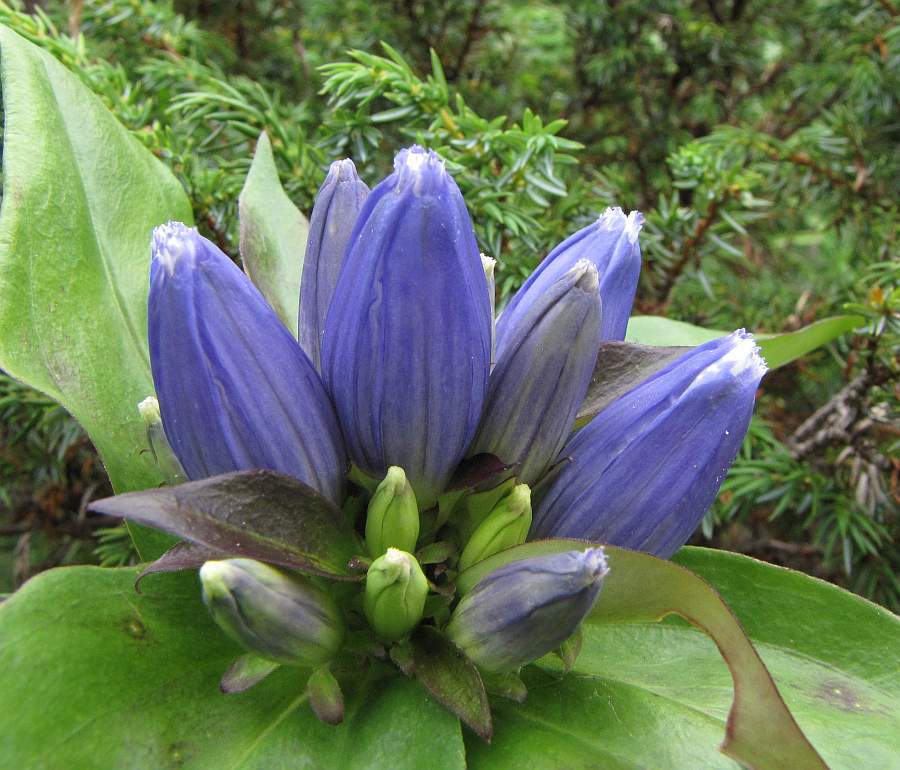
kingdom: Plantae
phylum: Tracheophyta
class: Magnoliopsida
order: Gentianales
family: Gentianaceae
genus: Gentiana
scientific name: Gentiana andrewsii
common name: Bottle gentian
